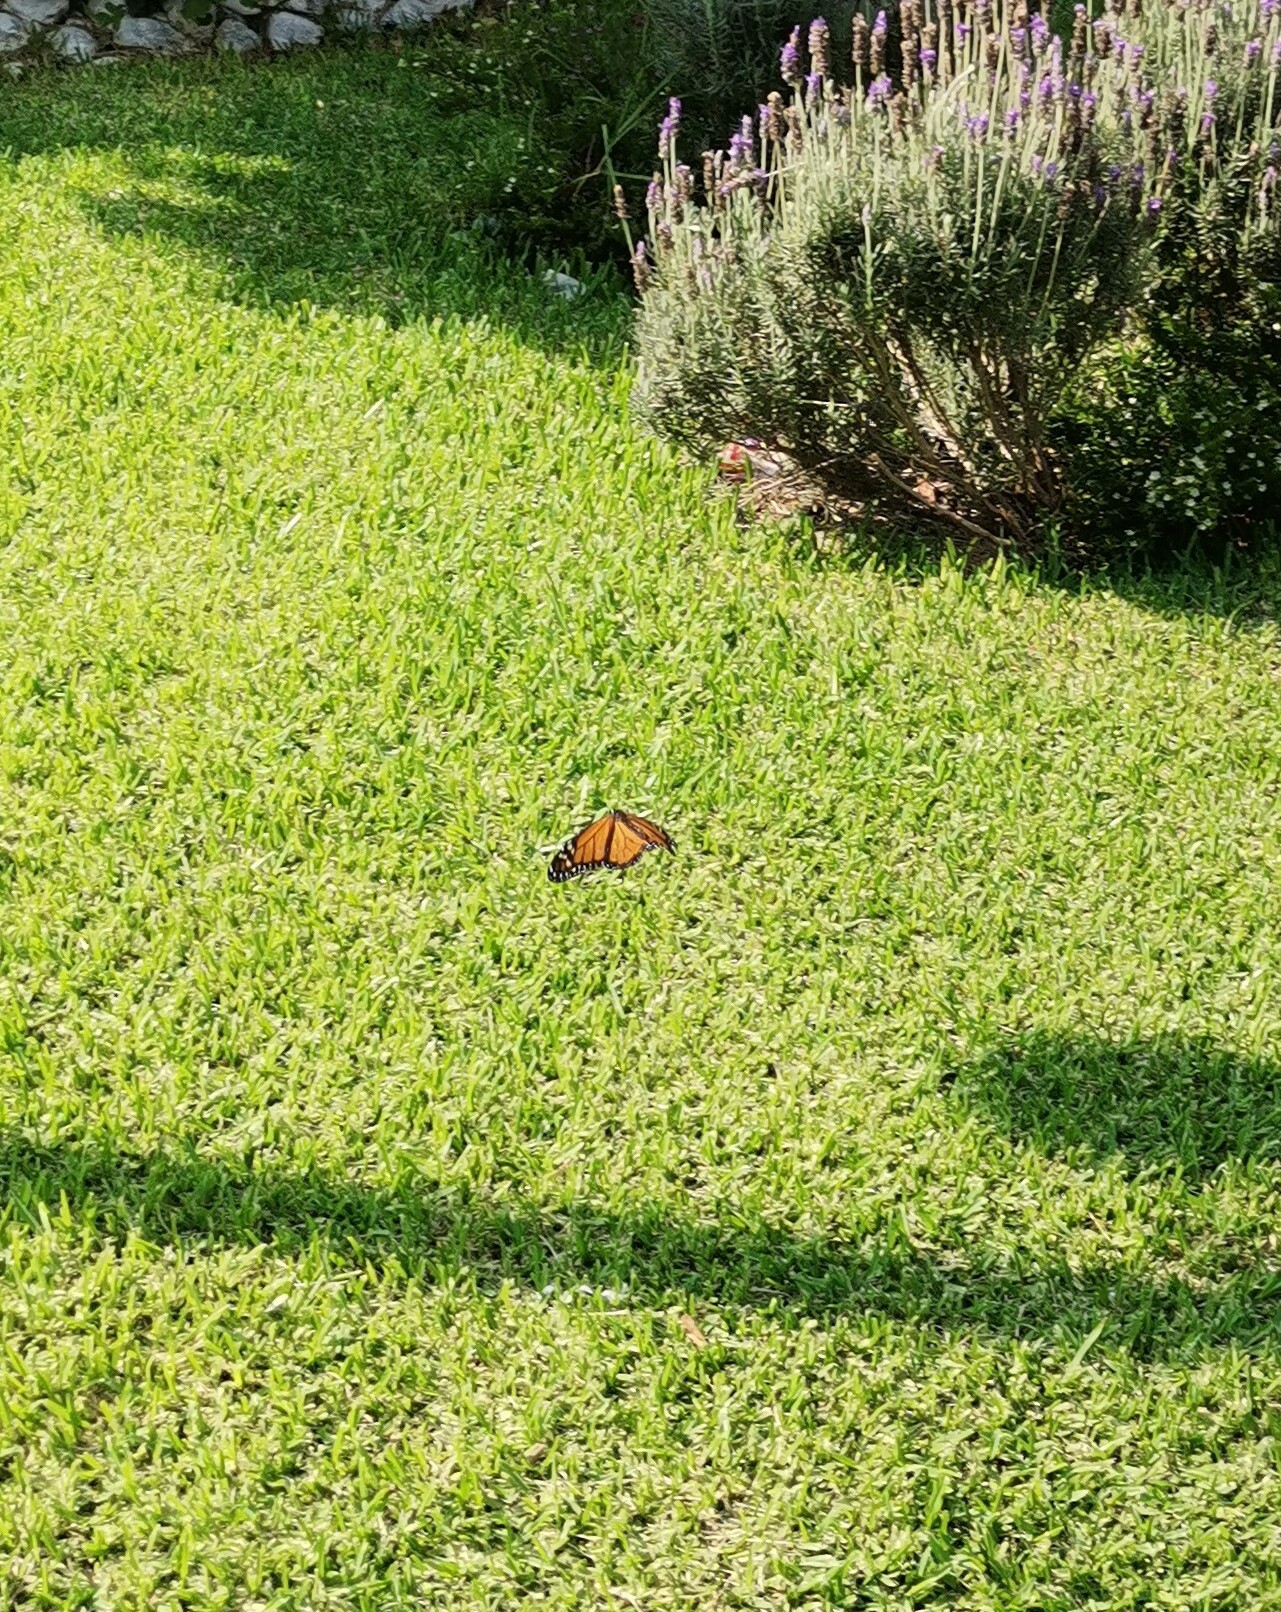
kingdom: Animalia
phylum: Arthropoda
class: Insecta
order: Lepidoptera
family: Nymphalidae
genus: Danaus
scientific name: Danaus plexippus
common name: Monarch
